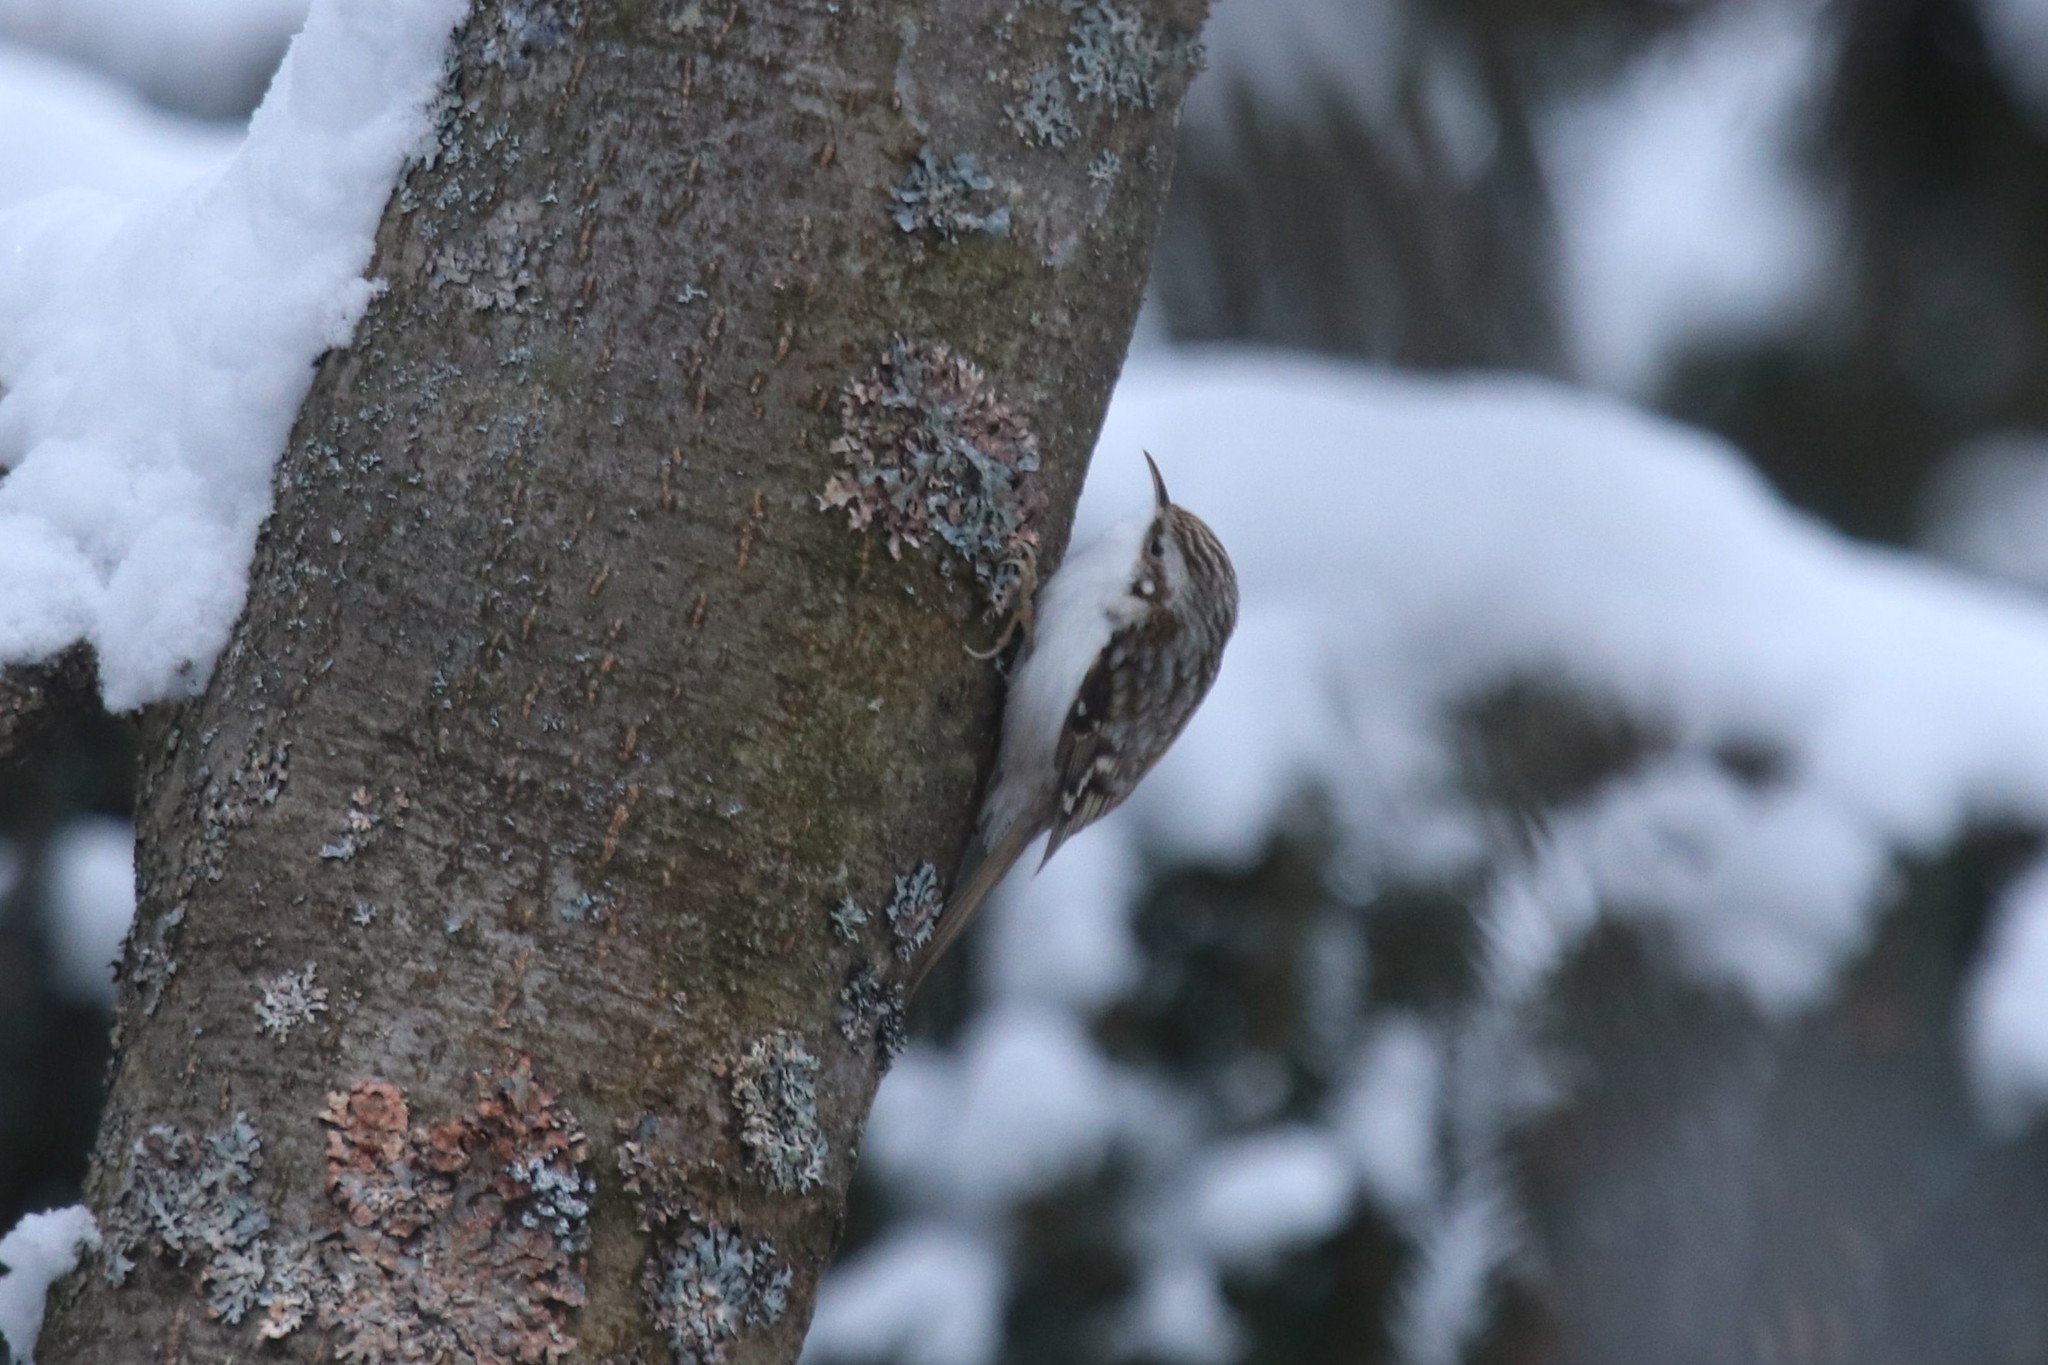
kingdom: Animalia
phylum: Chordata
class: Aves
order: Passeriformes
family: Certhiidae
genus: Certhia
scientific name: Certhia familiaris
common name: Eurasian treecreeper
